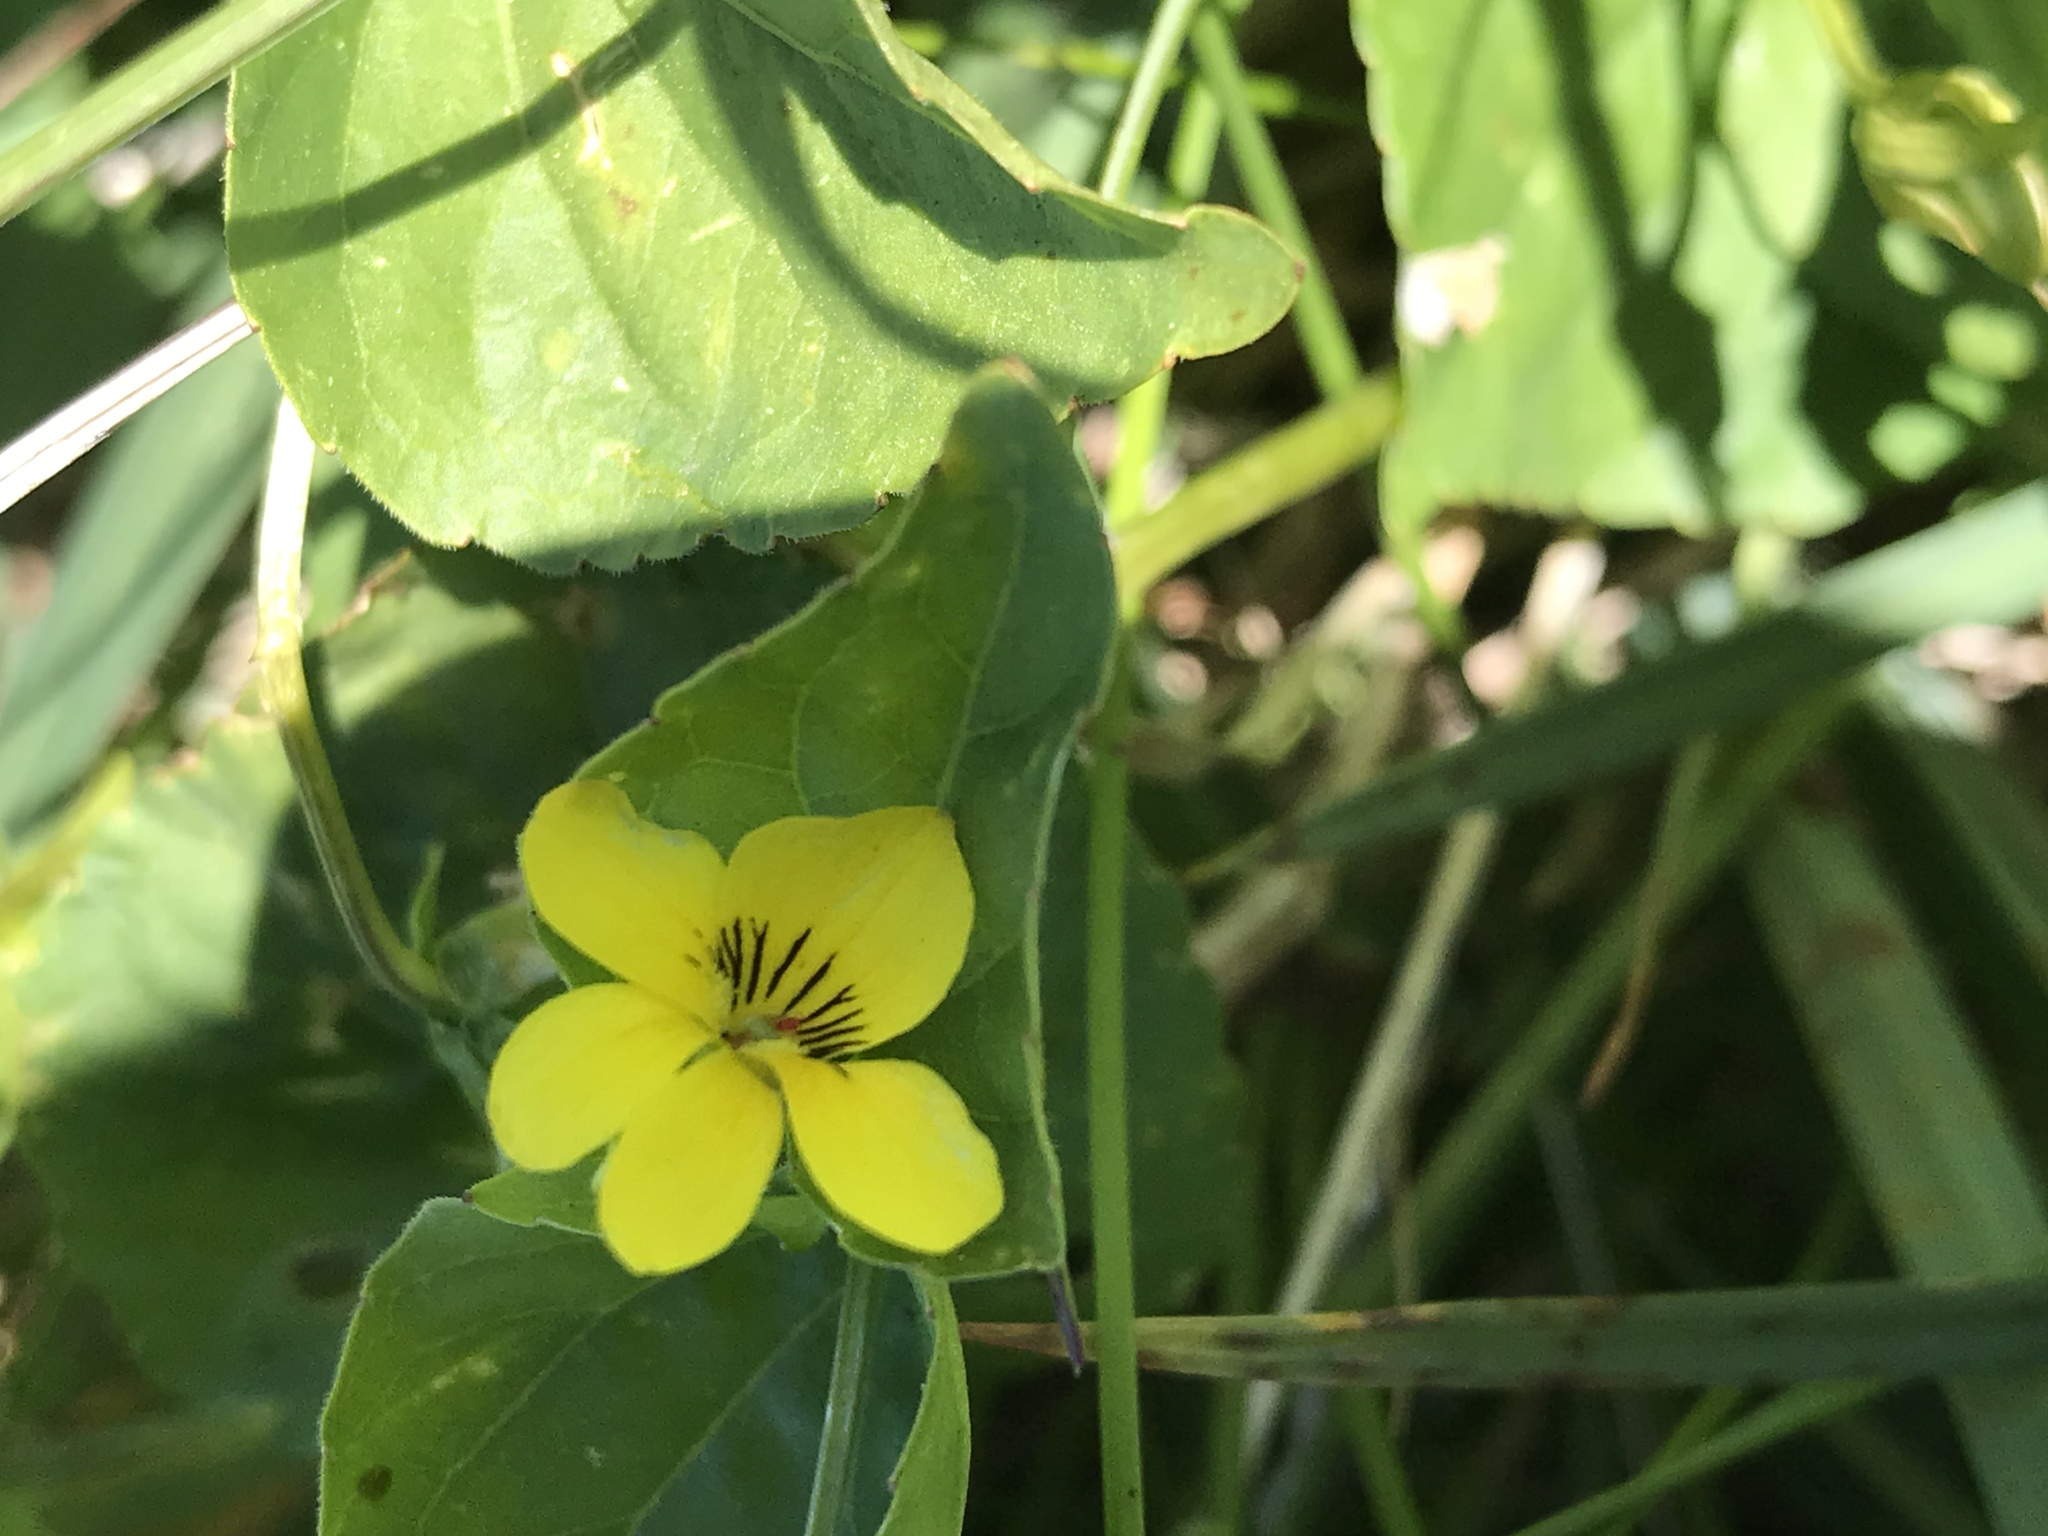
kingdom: Plantae
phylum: Tracheophyta
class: Magnoliopsida
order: Malpighiales
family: Violaceae
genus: Viola
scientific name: Viola glabella
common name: Stream violet
